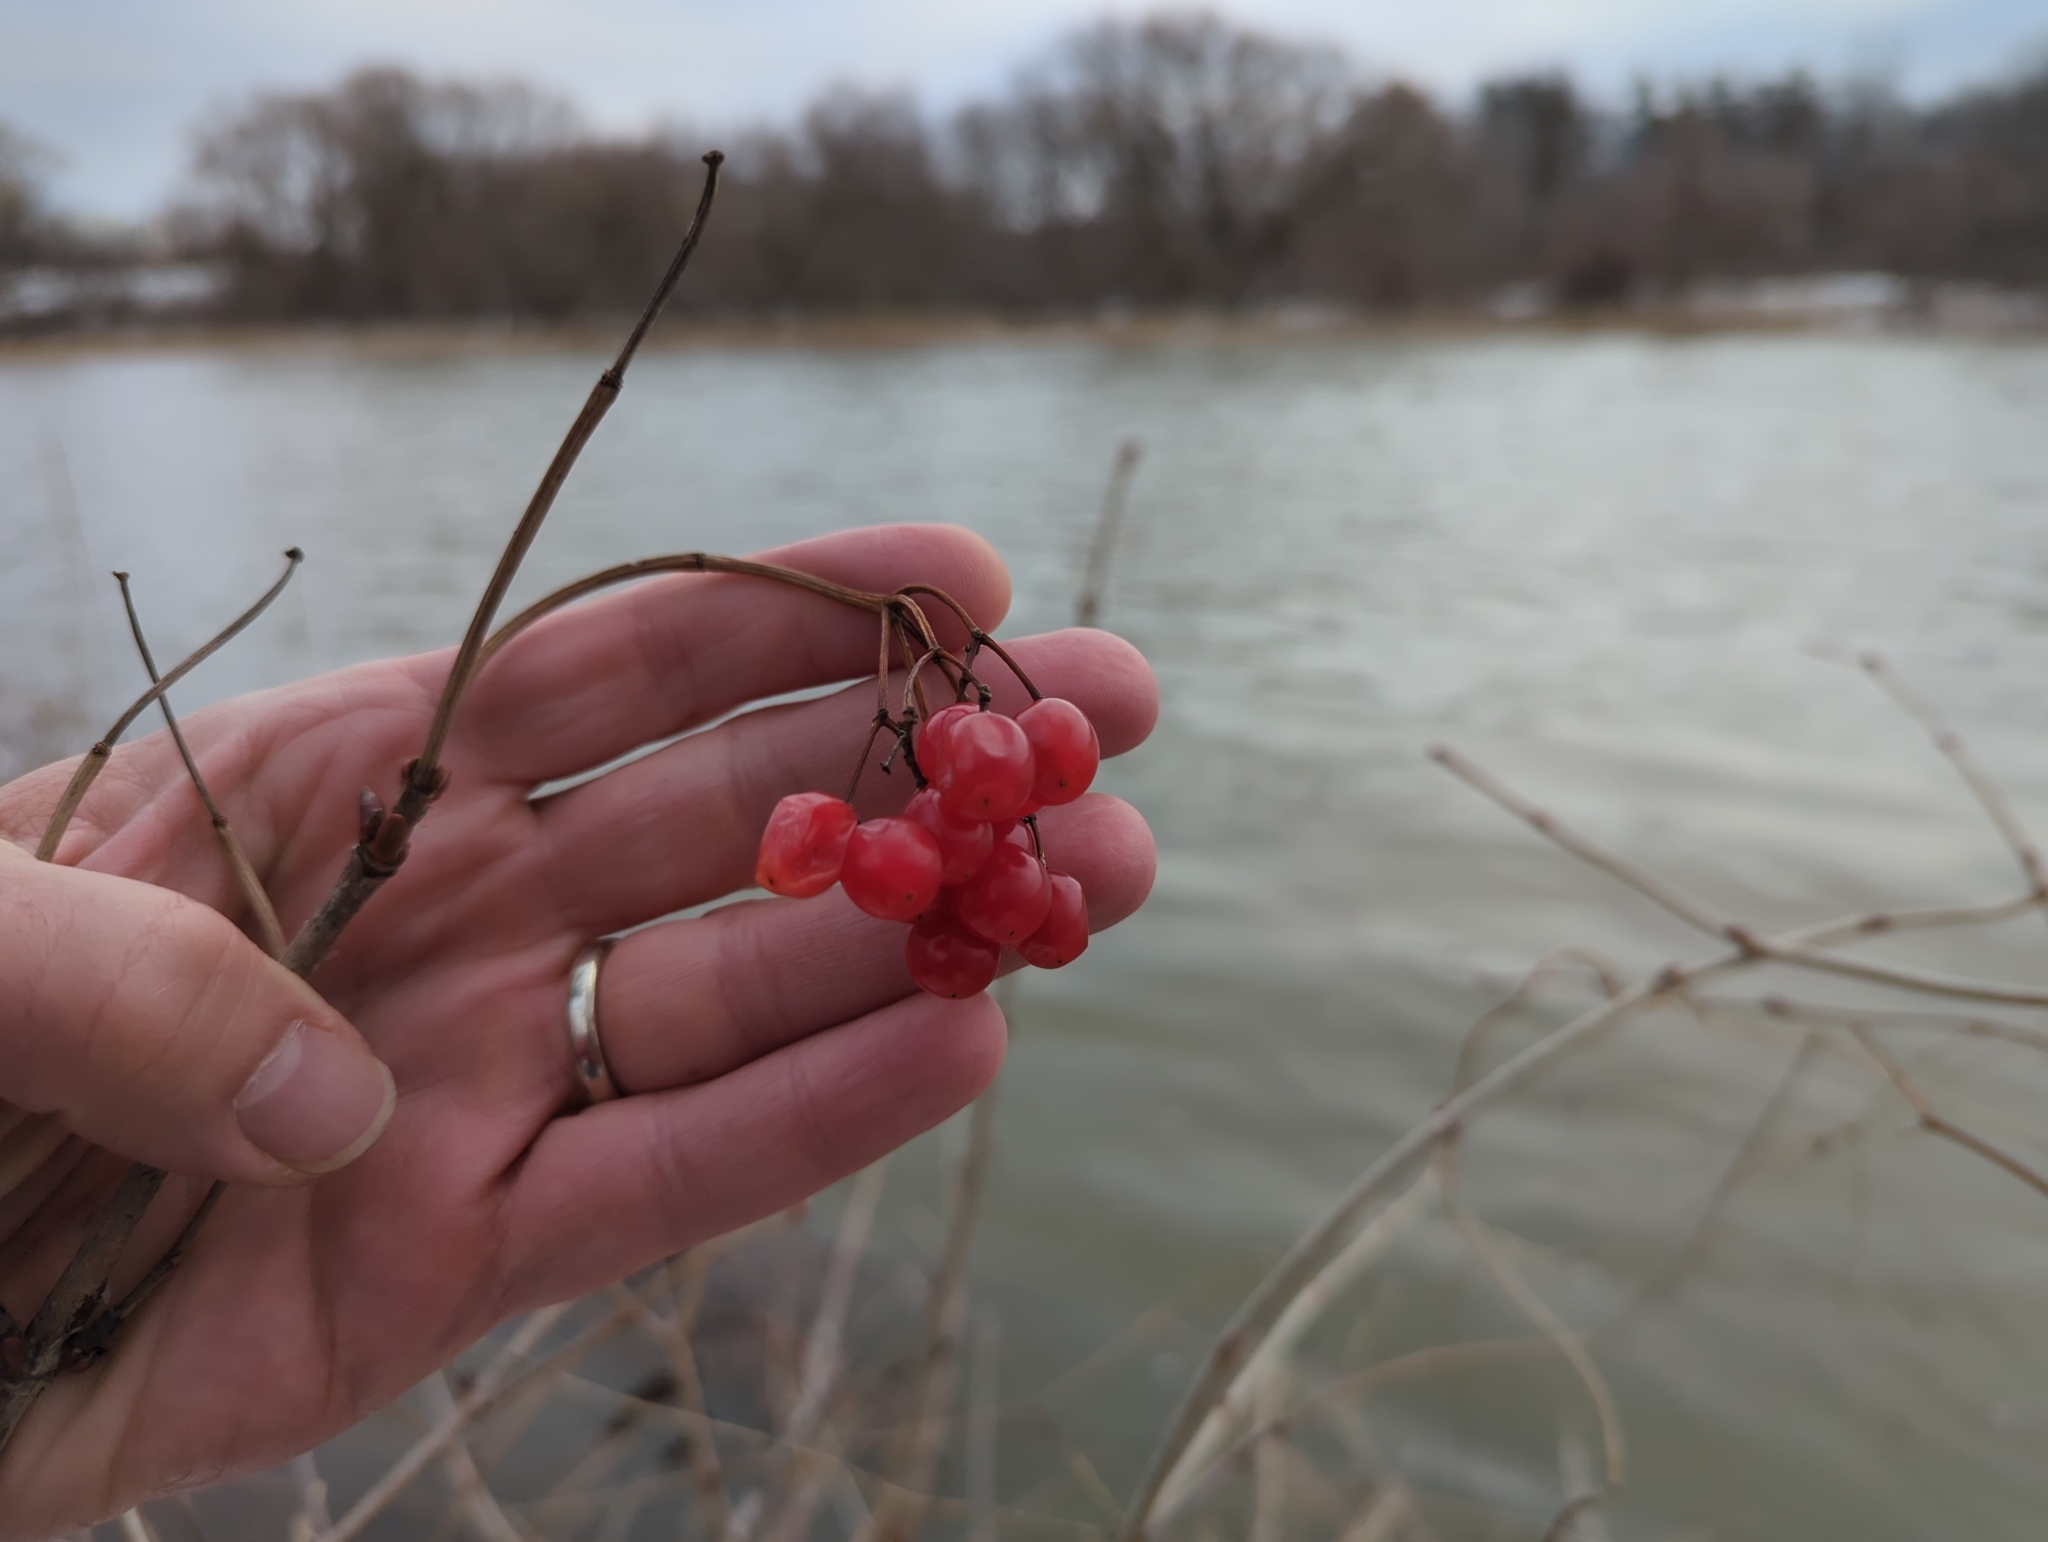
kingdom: Plantae
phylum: Tracheophyta
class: Magnoliopsida
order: Dipsacales
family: Viburnaceae
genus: Viburnum
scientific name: Viburnum opulus
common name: Guelder-rose
